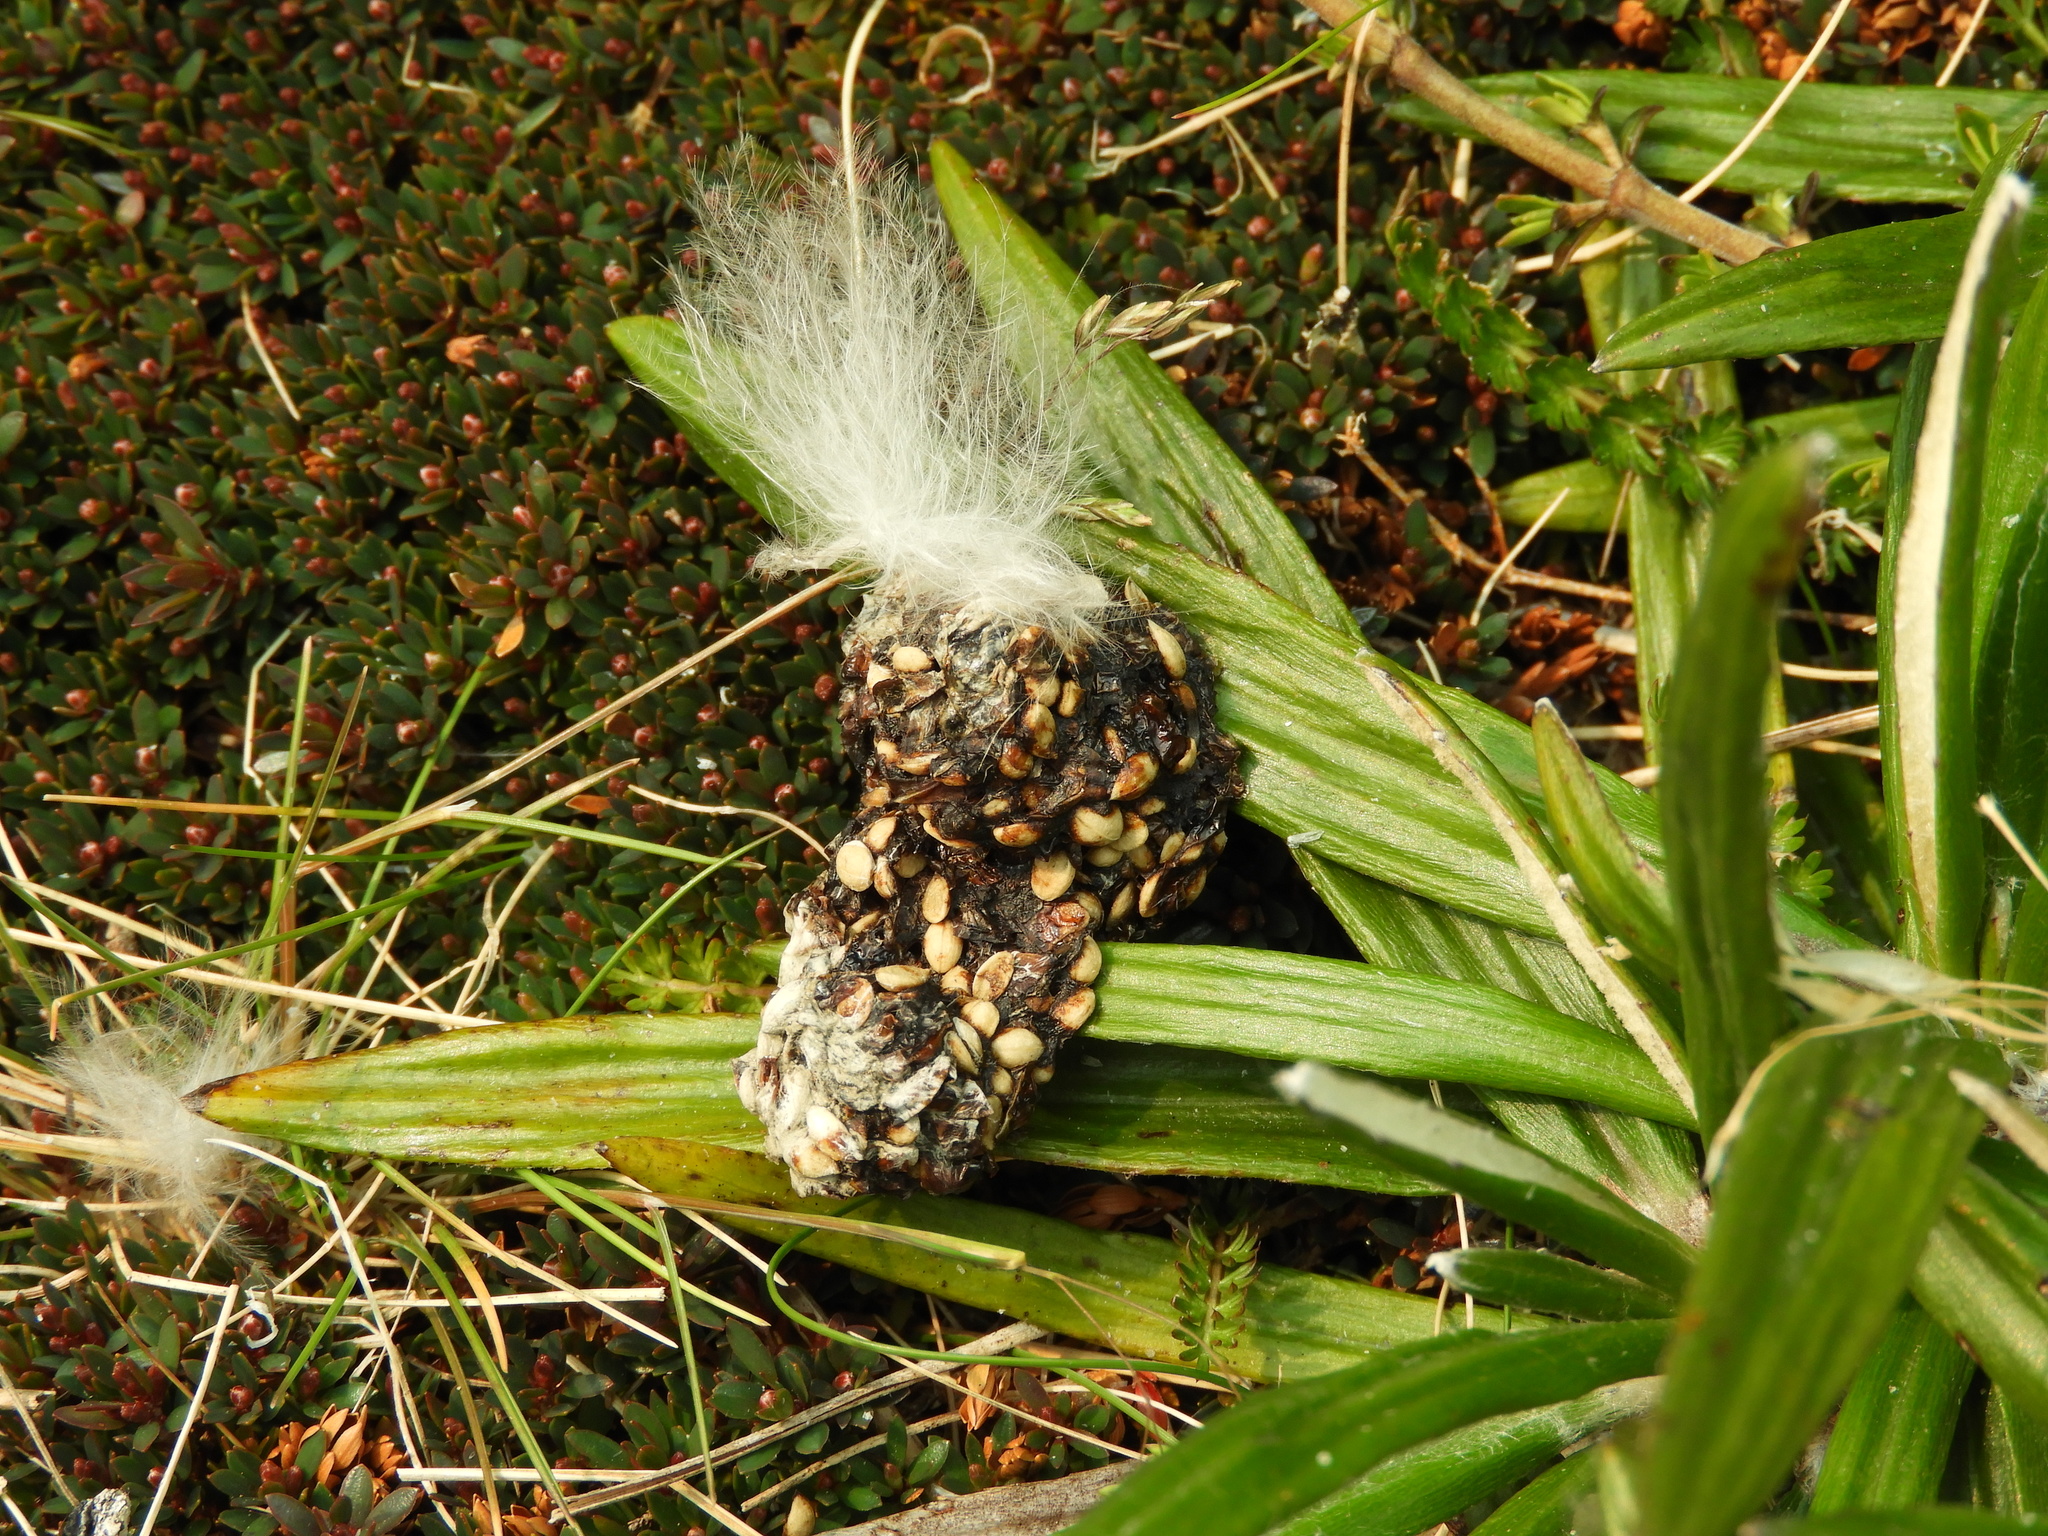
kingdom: Animalia
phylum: Chordata
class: Aves
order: Psittaciformes
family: Psittacidae
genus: Nestor
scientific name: Nestor notabilis
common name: Kea
